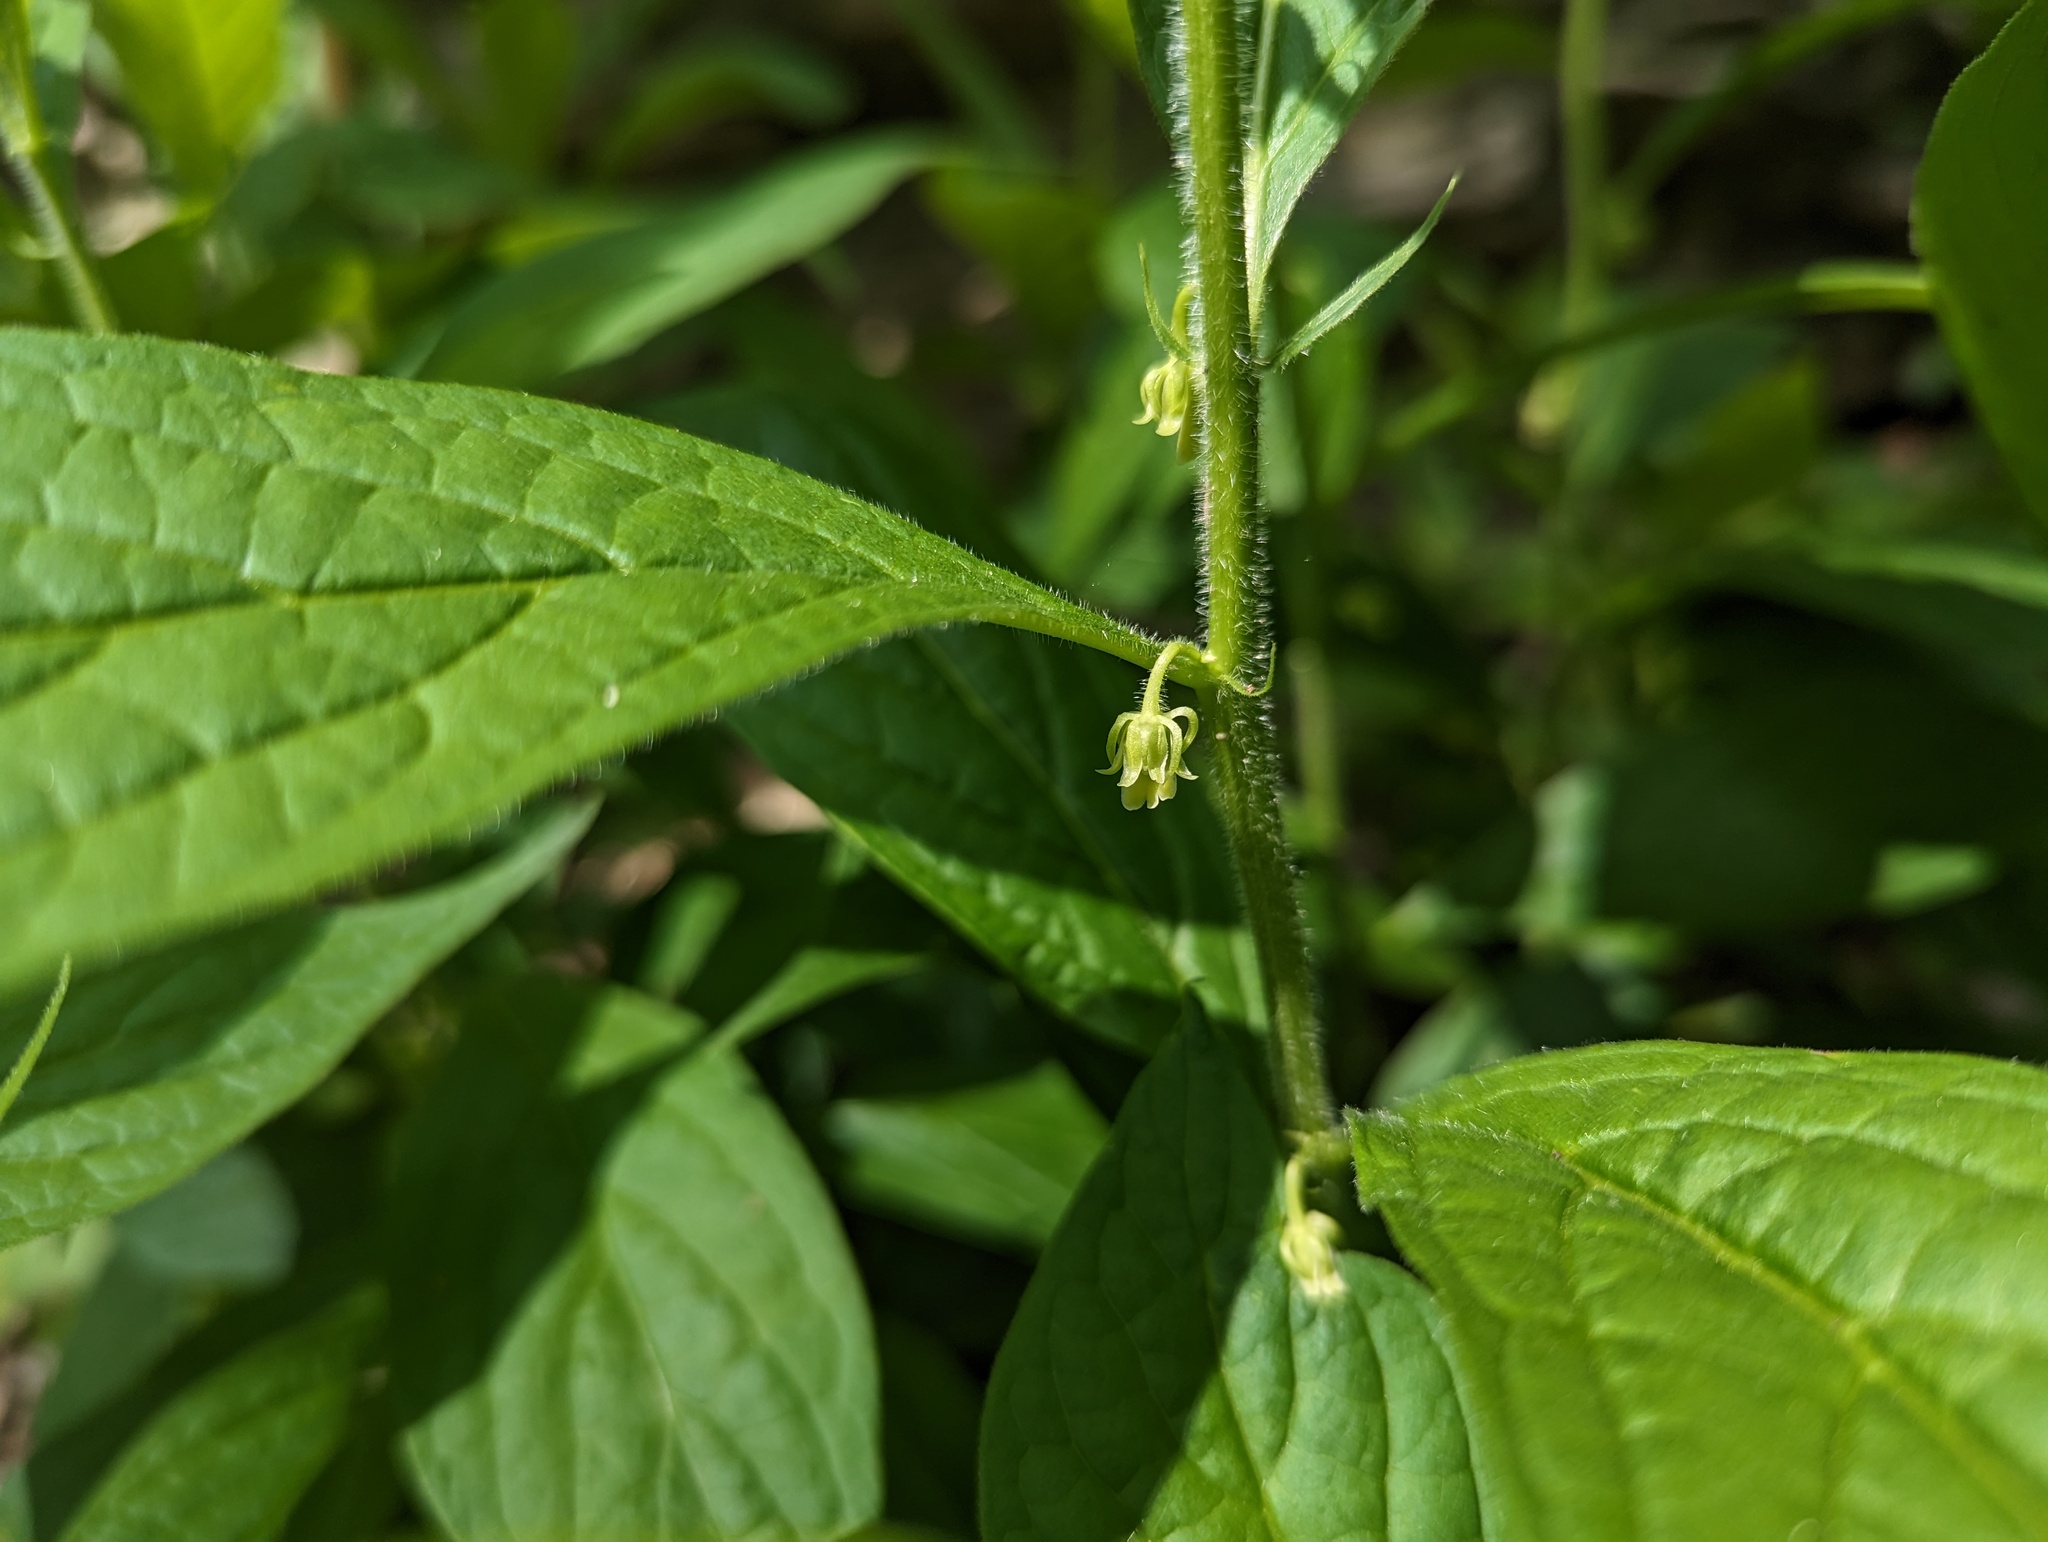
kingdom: Plantae
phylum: Tracheophyta
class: Magnoliopsida
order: Malpighiales
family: Violaceae
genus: Cubelium
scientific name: Cubelium concolor
